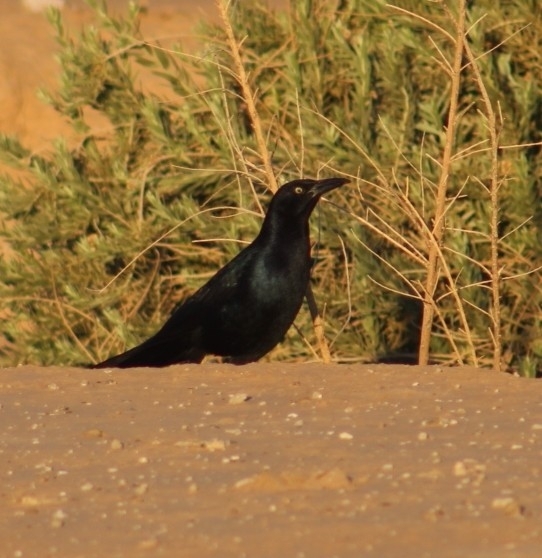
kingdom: Animalia
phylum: Chordata
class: Aves
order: Passeriformes
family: Icteridae
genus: Quiscalus
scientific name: Quiscalus mexicanus
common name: Great-tailed grackle
